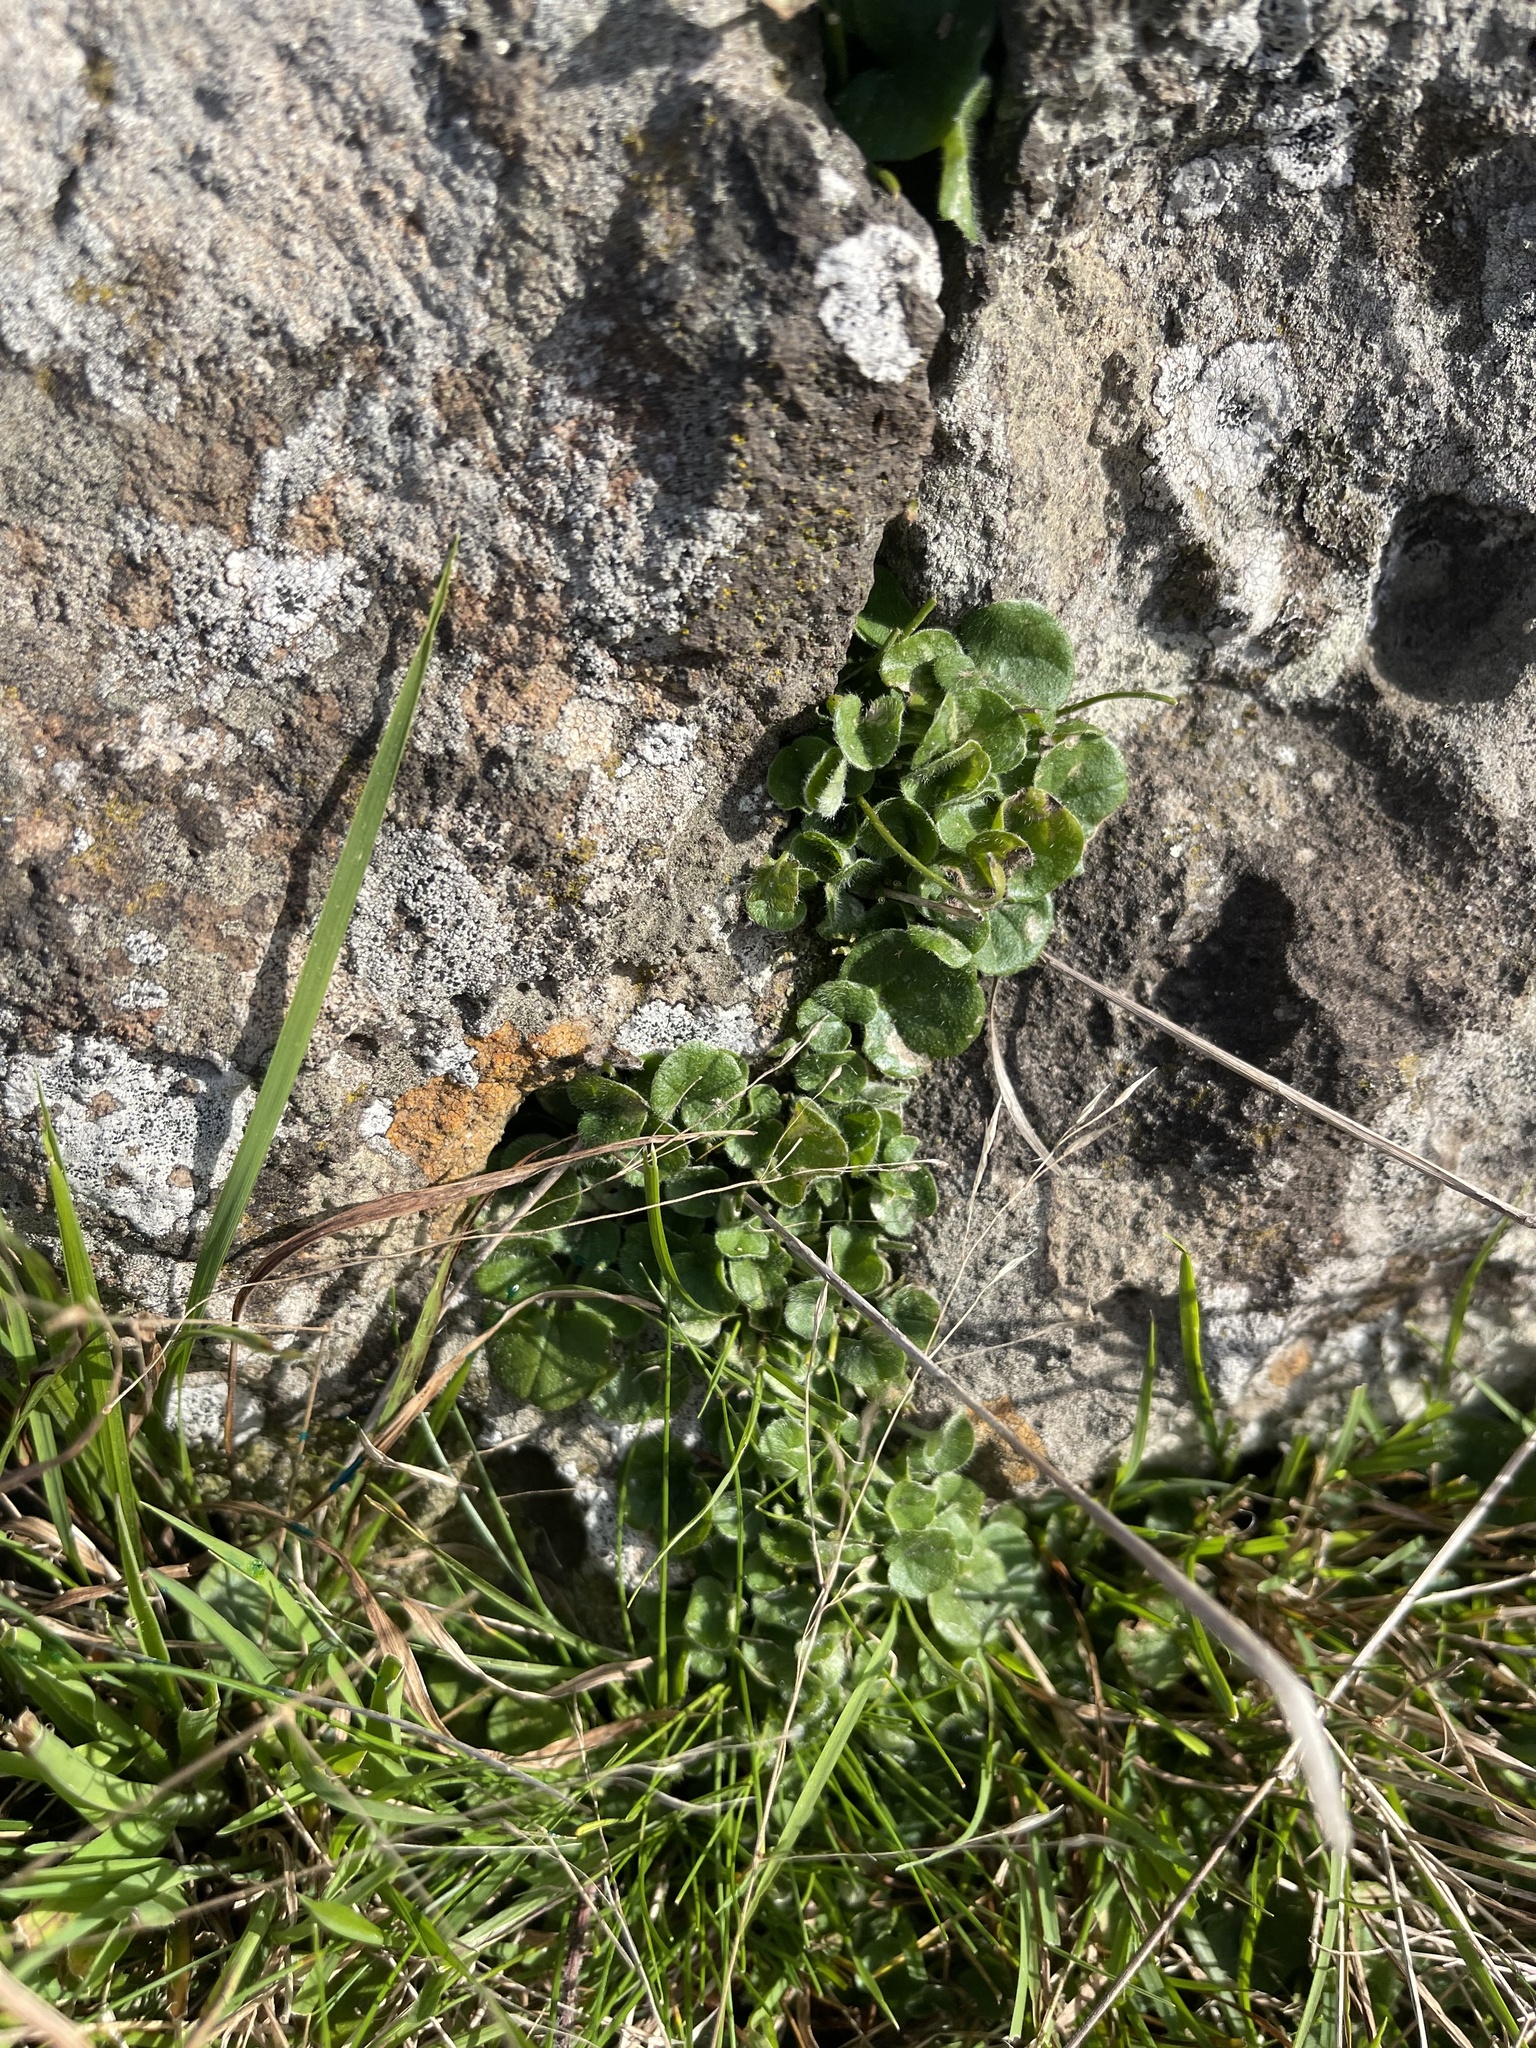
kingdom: Plantae
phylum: Tracheophyta
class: Magnoliopsida
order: Solanales
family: Convolvulaceae
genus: Dichondra
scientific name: Dichondra repens
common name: Kidneyweed
